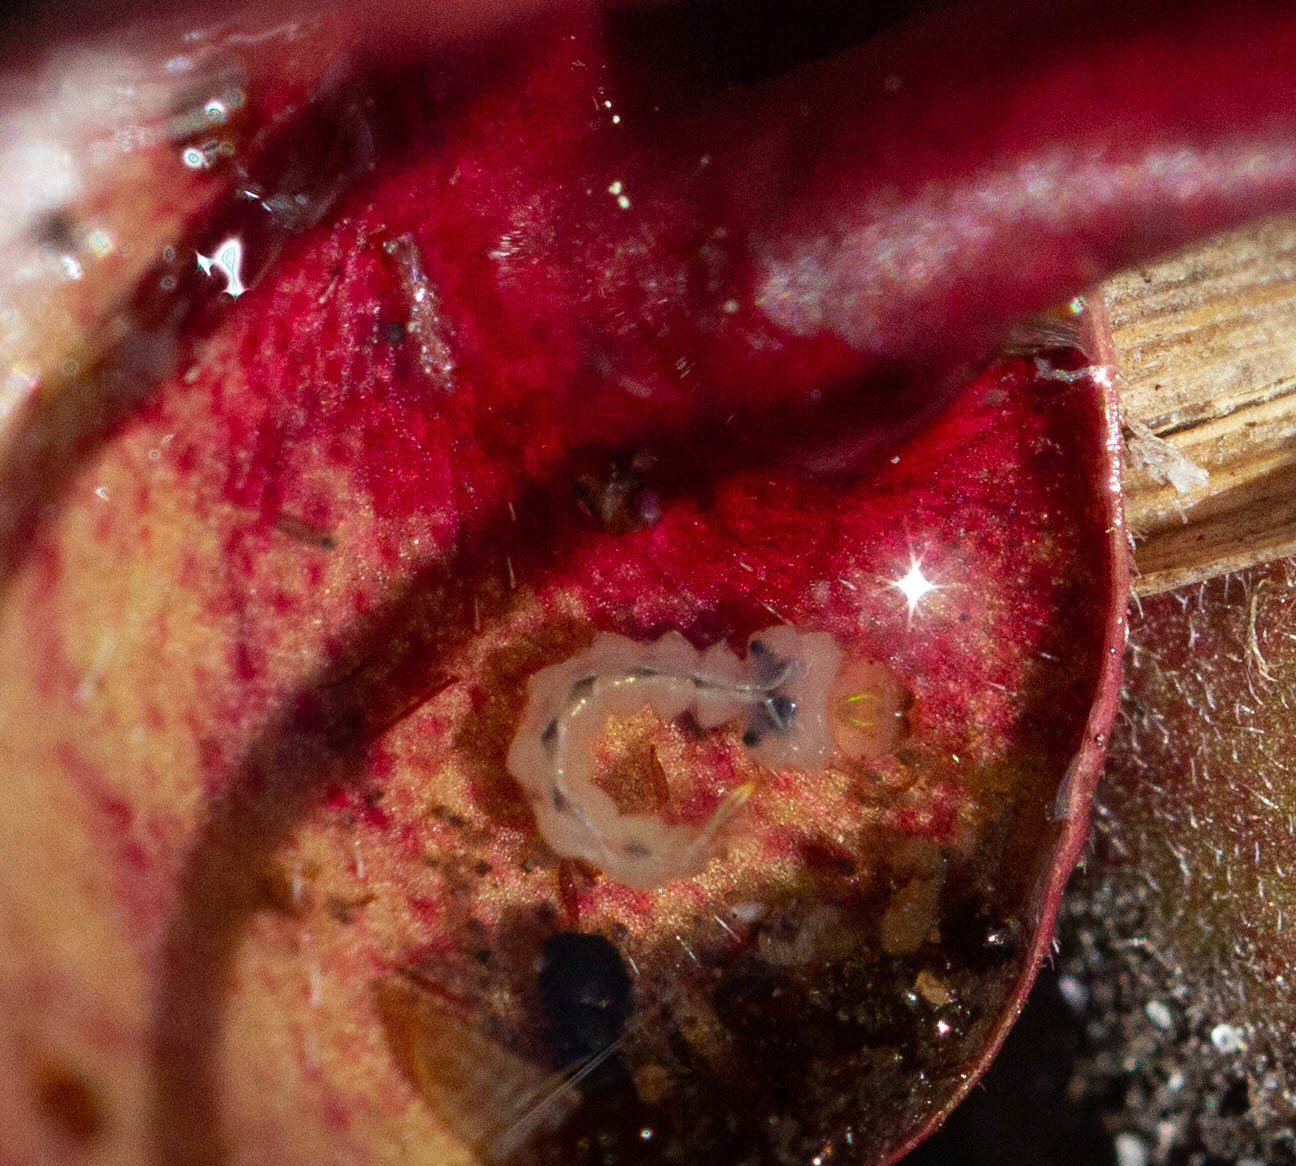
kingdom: Animalia
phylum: Arthropoda
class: Insecta
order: Diptera
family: Culicidae
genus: Wyeomyia
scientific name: Wyeomyia smithii
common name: Pitcher-plant mosquito
